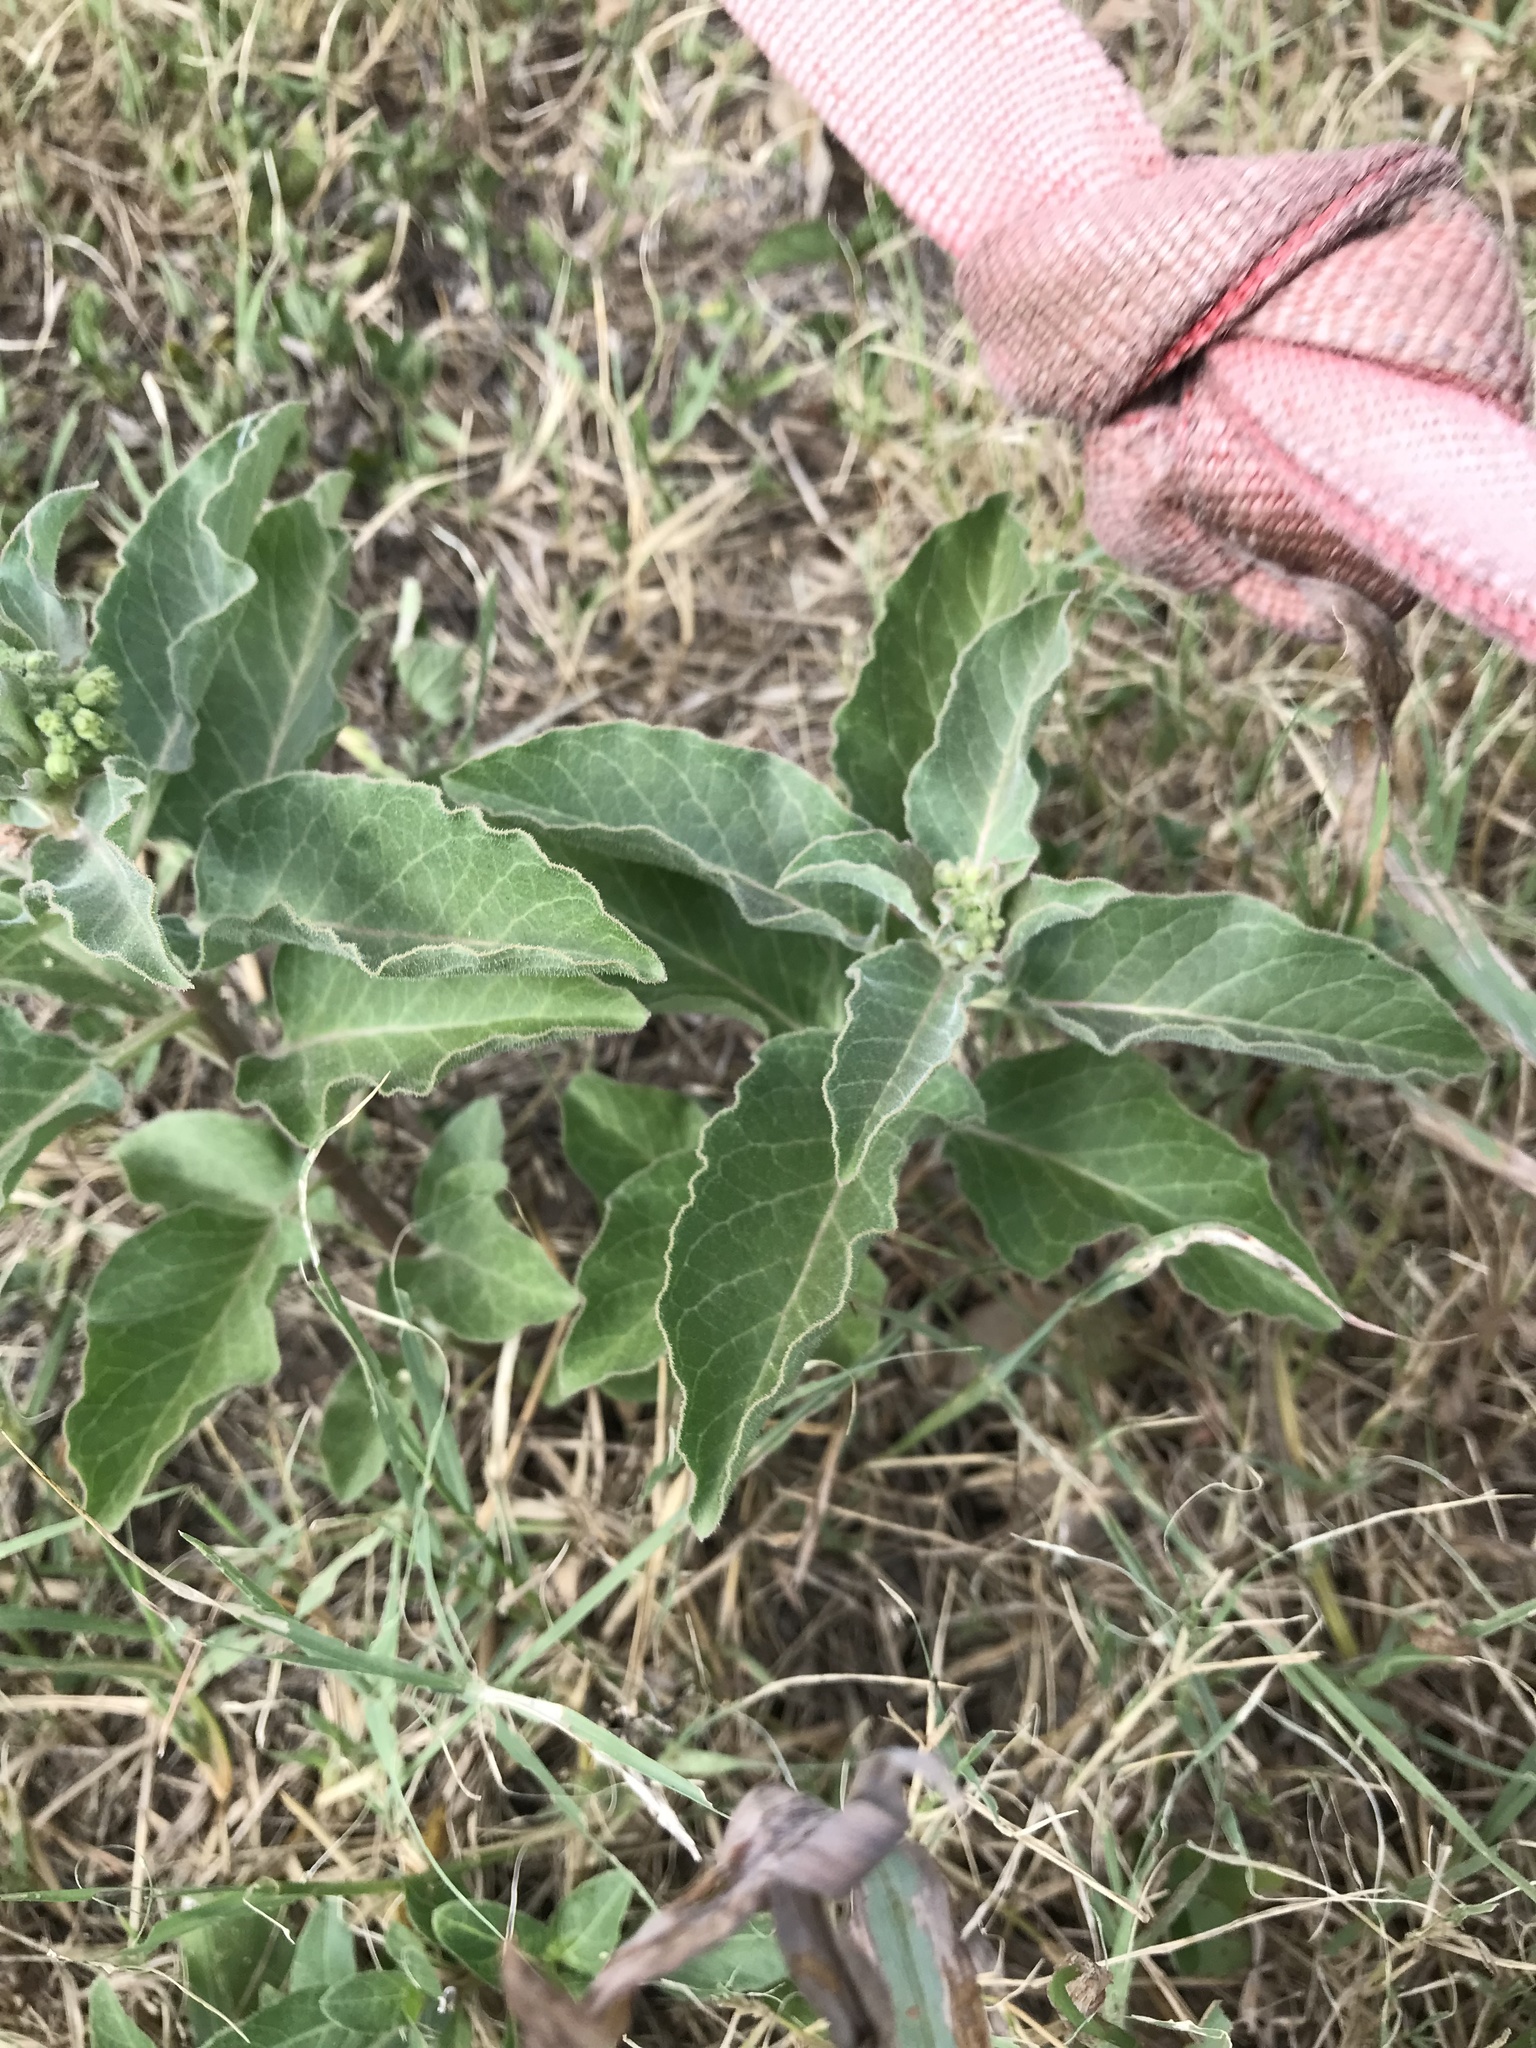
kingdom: Plantae
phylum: Tracheophyta
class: Magnoliopsida
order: Gentianales
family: Apocynaceae
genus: Asclepias
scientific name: Asclepias oenotheroides
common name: Zizotes milkweed
